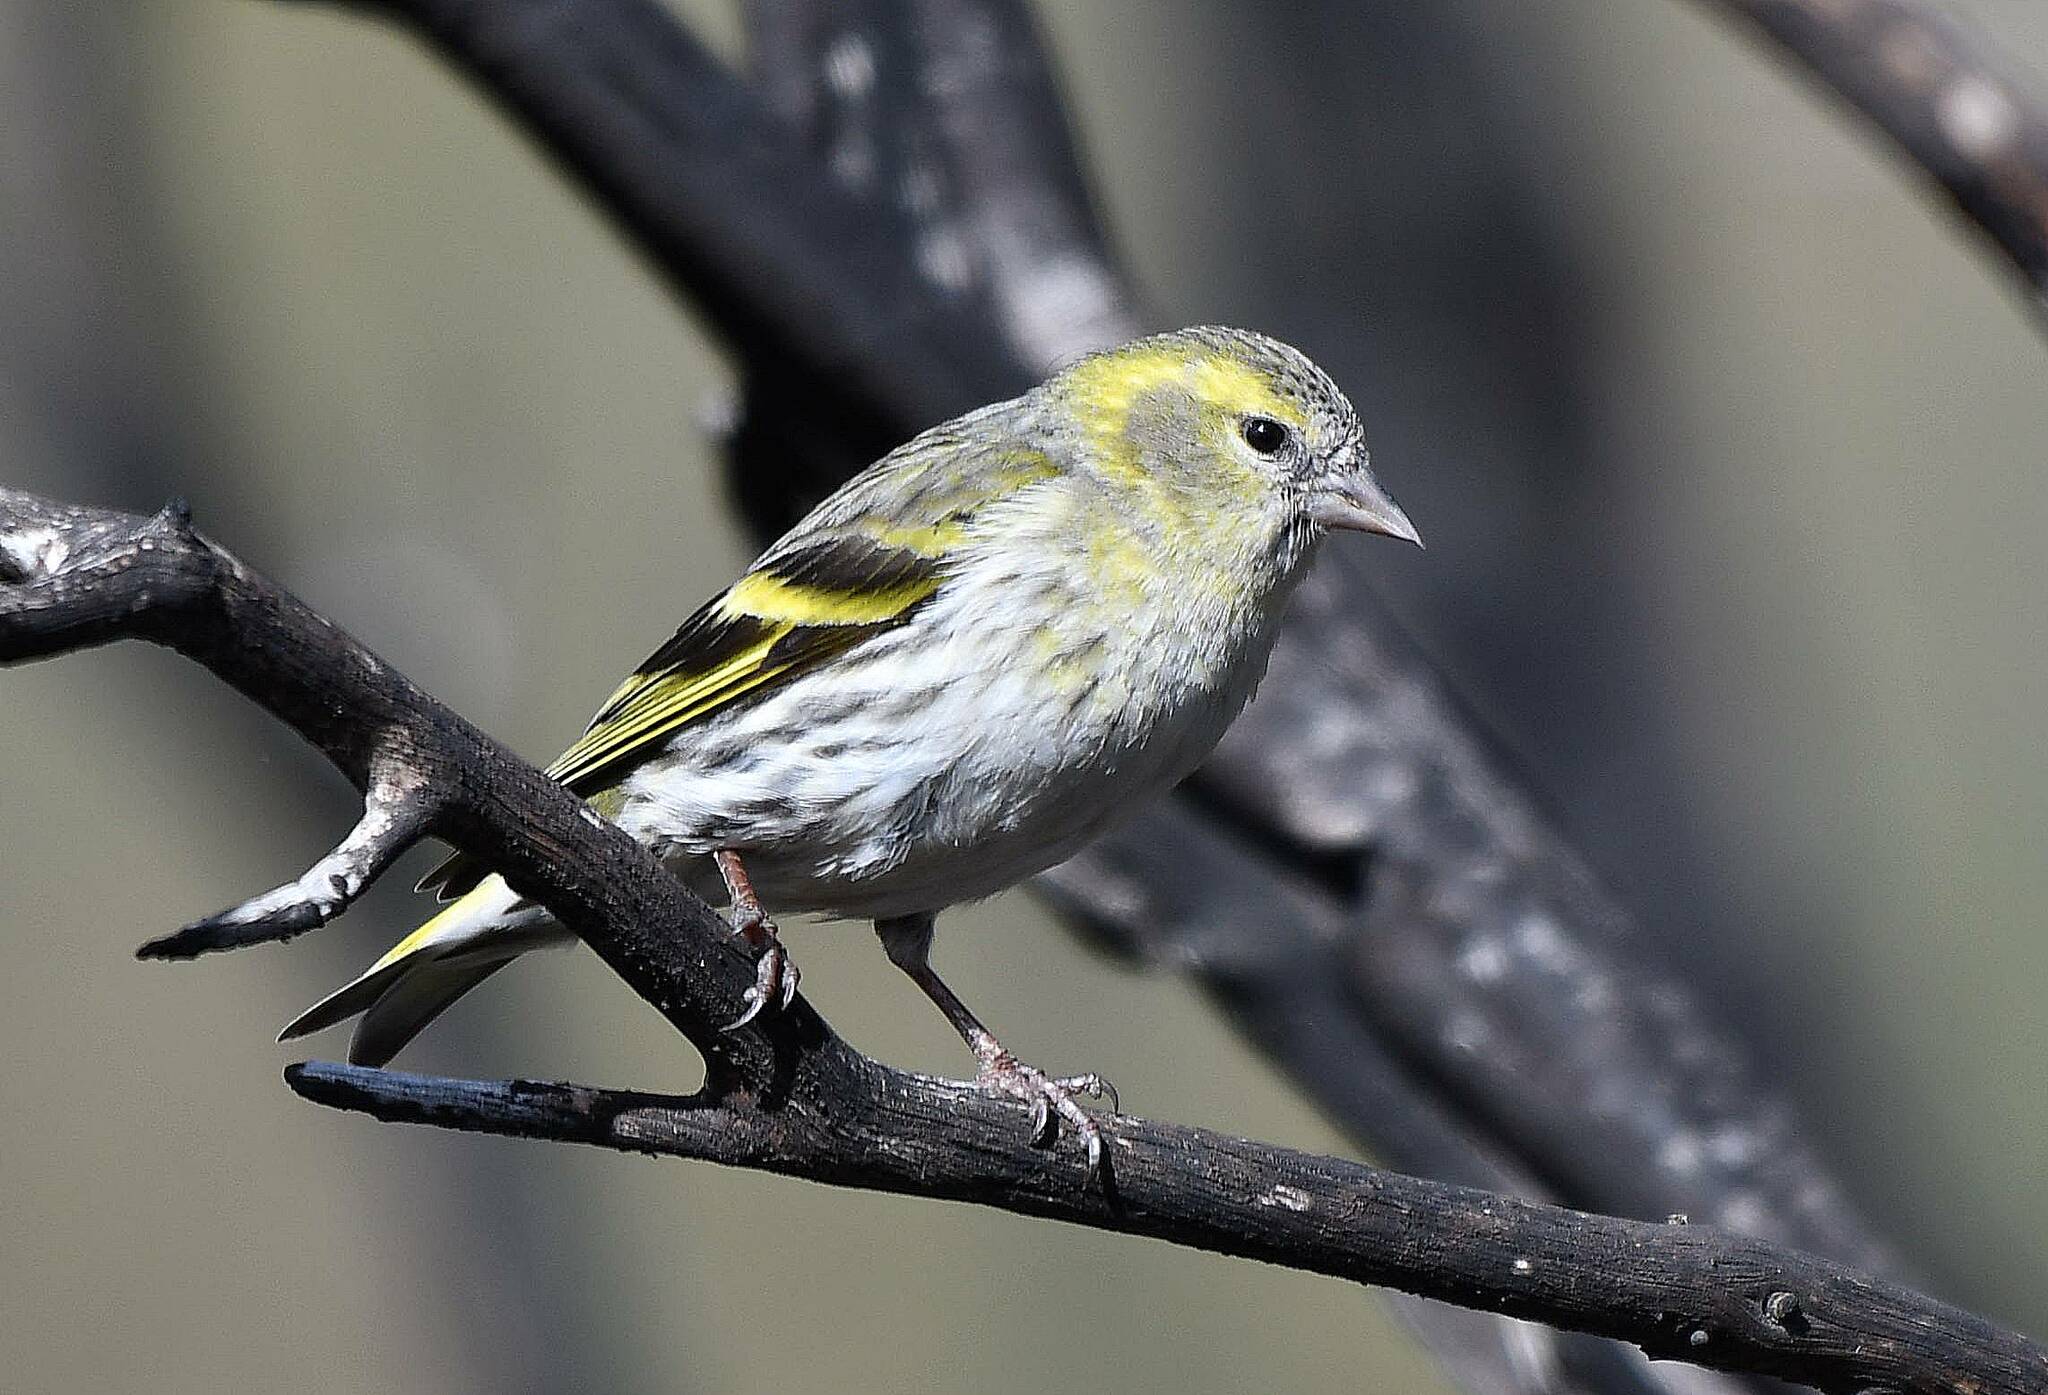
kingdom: Animalia
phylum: Chordata
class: Aves
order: Passeriformes
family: Fringillidae
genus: Spinus
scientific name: Spinus spinus
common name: Eurasian siskin
